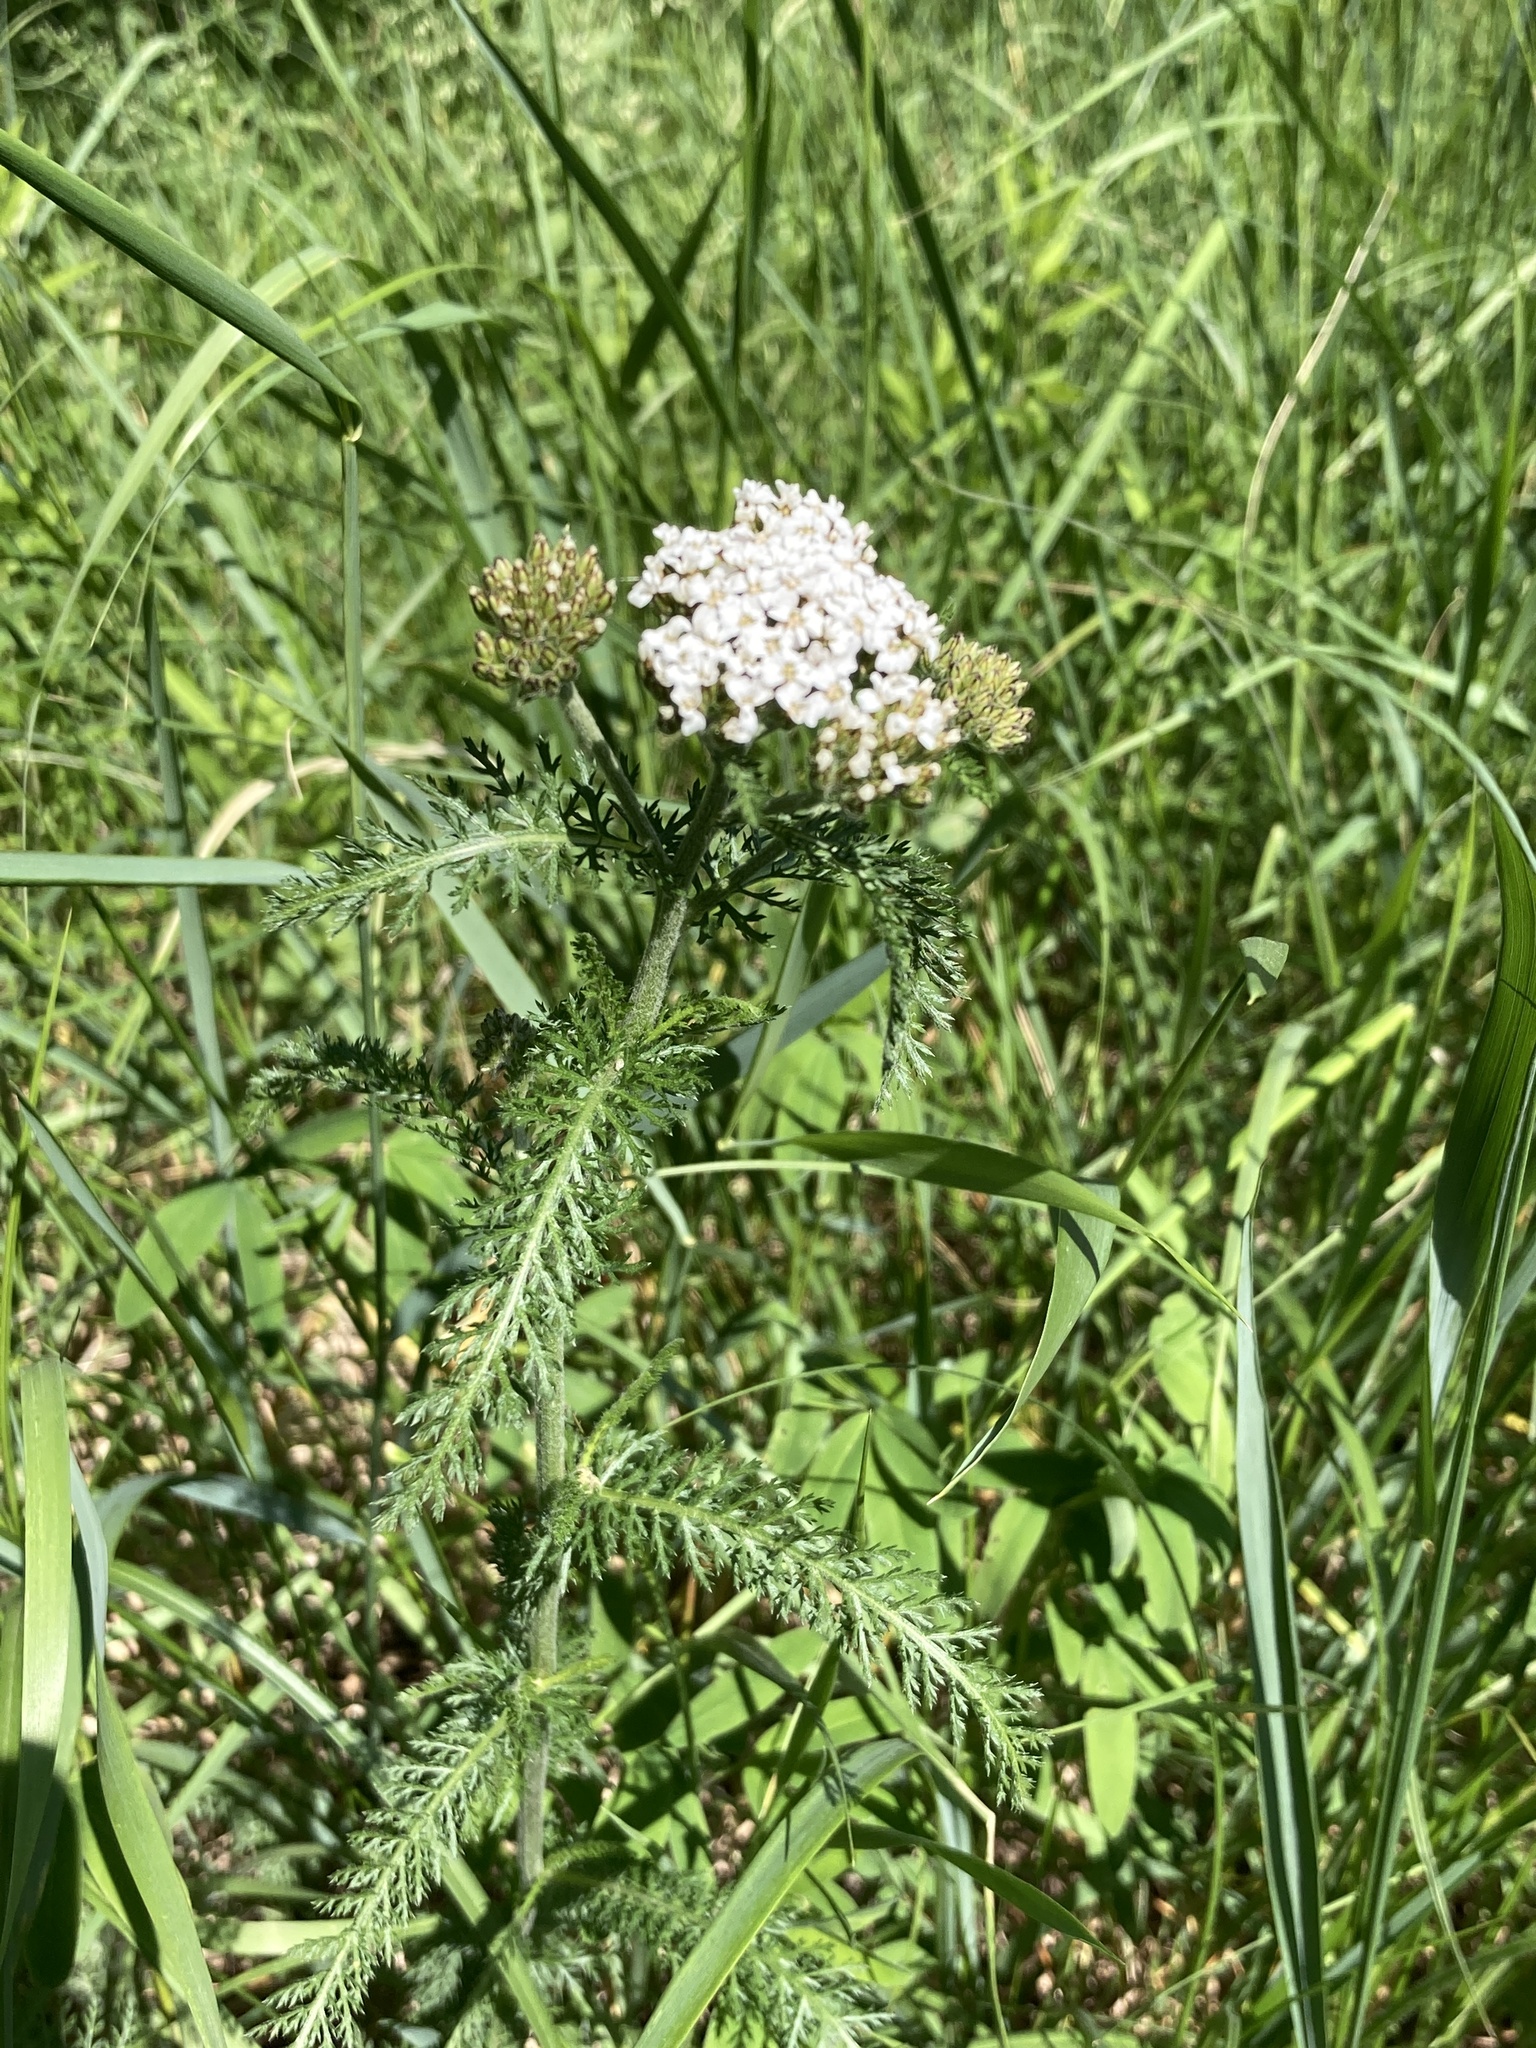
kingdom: Plantae
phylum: Tracheophyta
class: Magnoliopsida
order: Asterales
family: Asteraceae
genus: Achillea
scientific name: Achillea millefolium
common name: Yarrow
